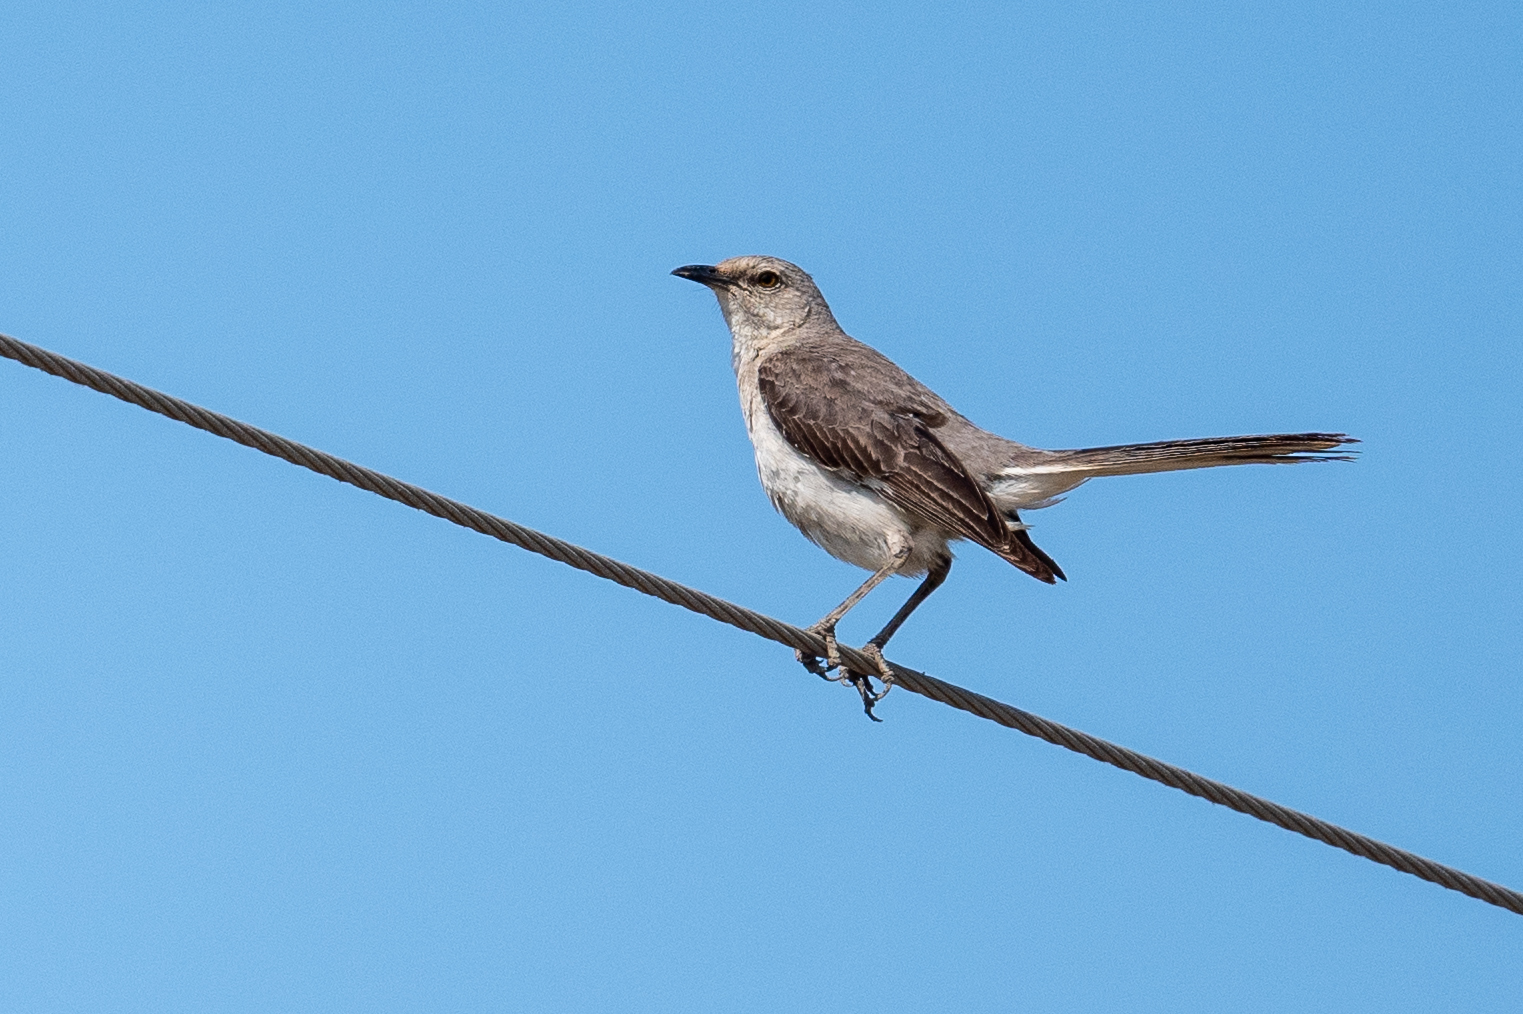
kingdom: Animalia
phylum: Chordata
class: Aves
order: Passeriformes
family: Mimidae
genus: Mimus
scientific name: Mimus polyglottos
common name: Northern mockingbird
